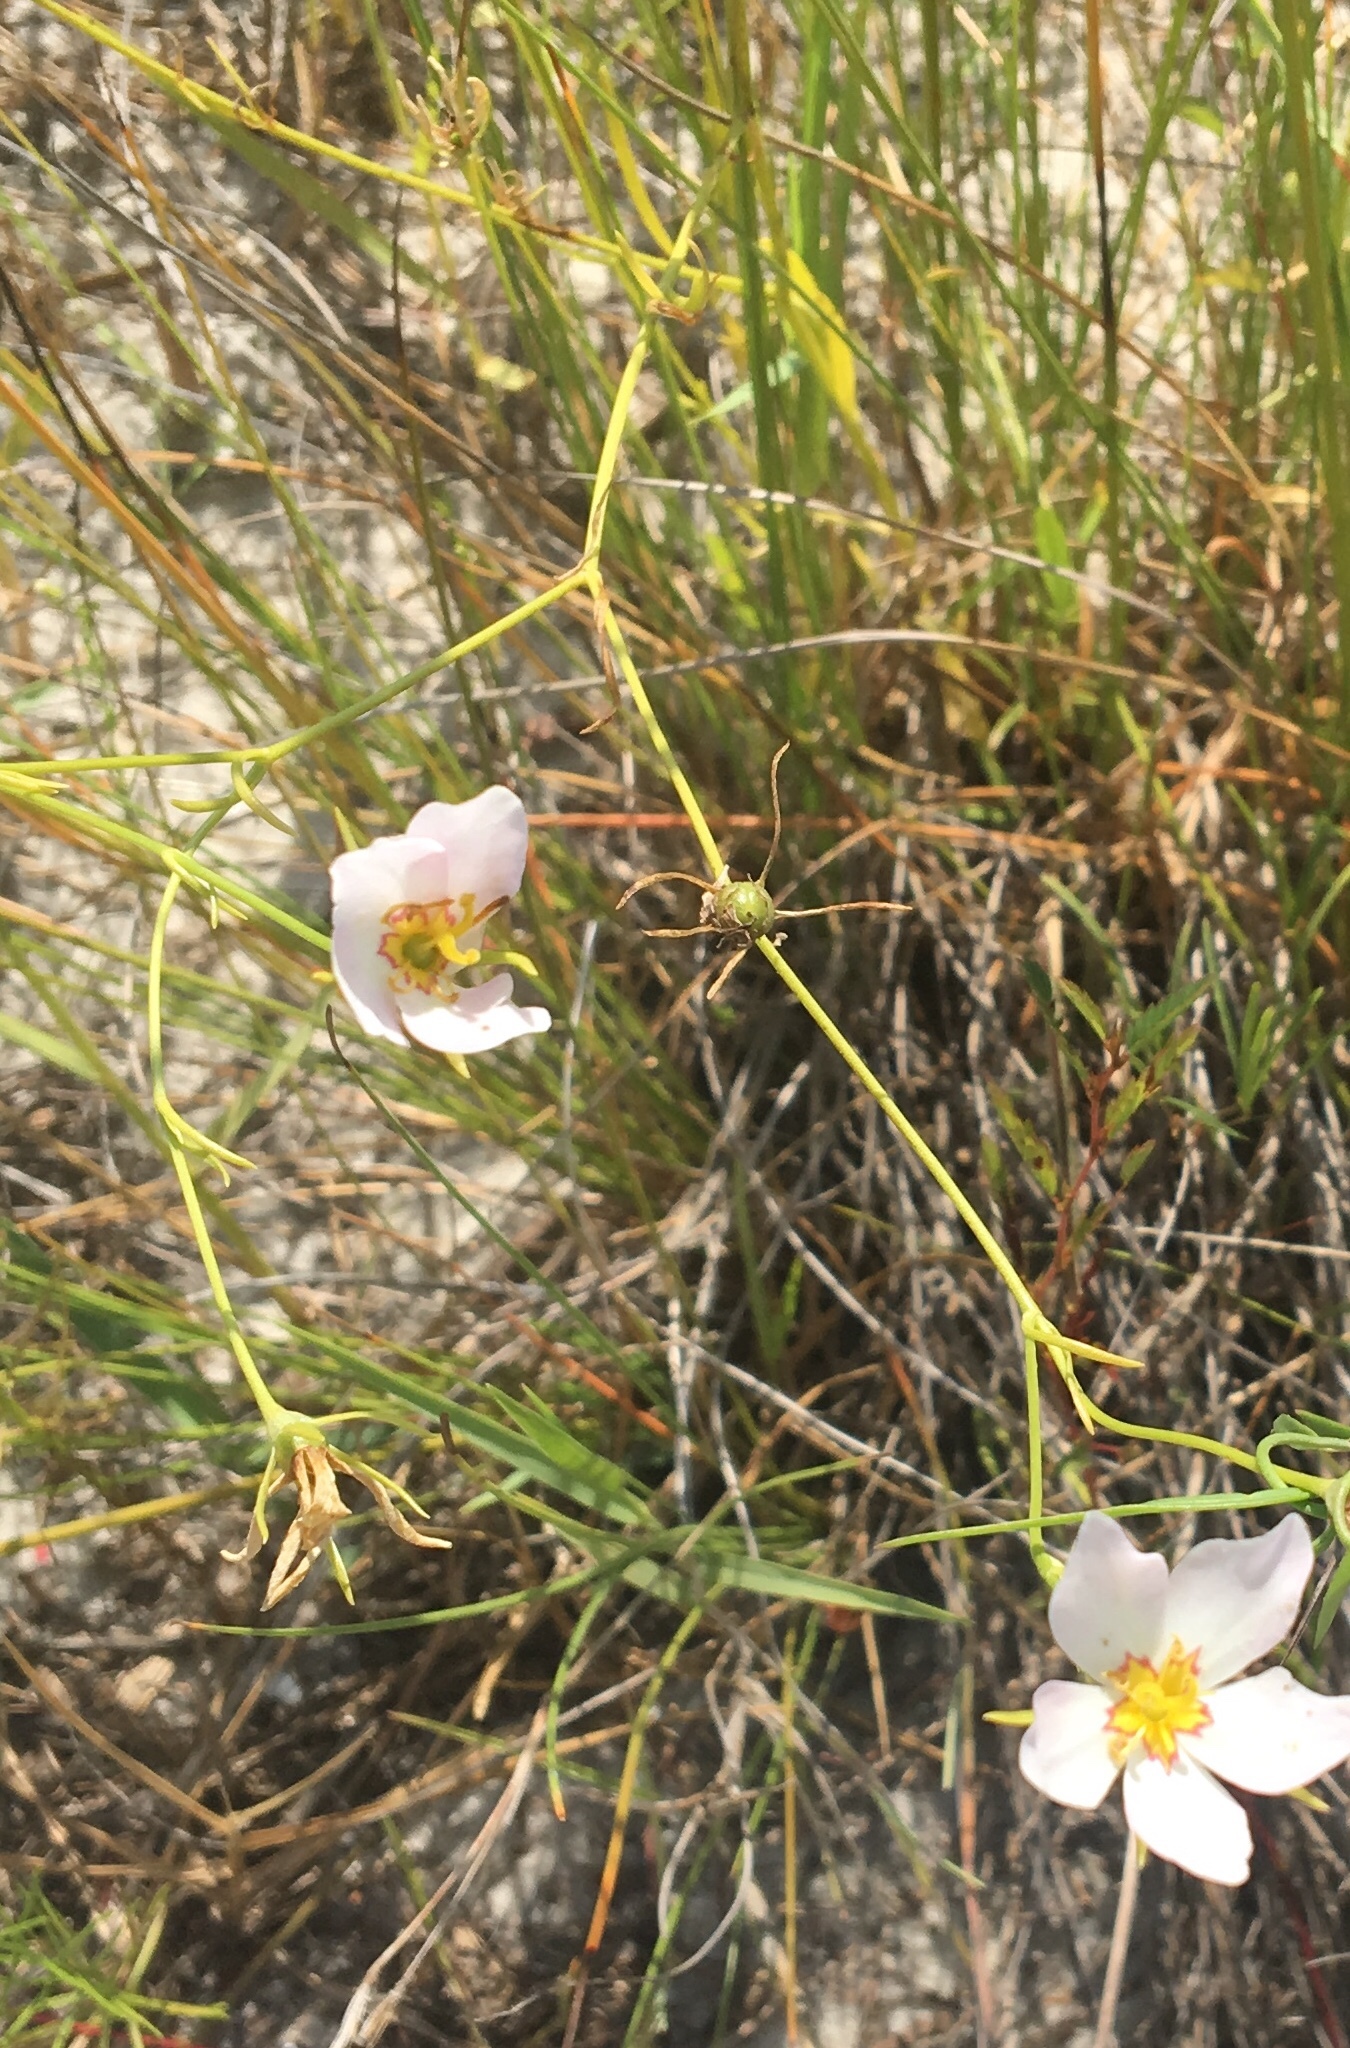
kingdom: Plantae
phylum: Tracheophyta
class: Magnoliopsida
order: Gentianales
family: Gentianaceae
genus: Sabatia
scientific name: Sabatia stellaris
